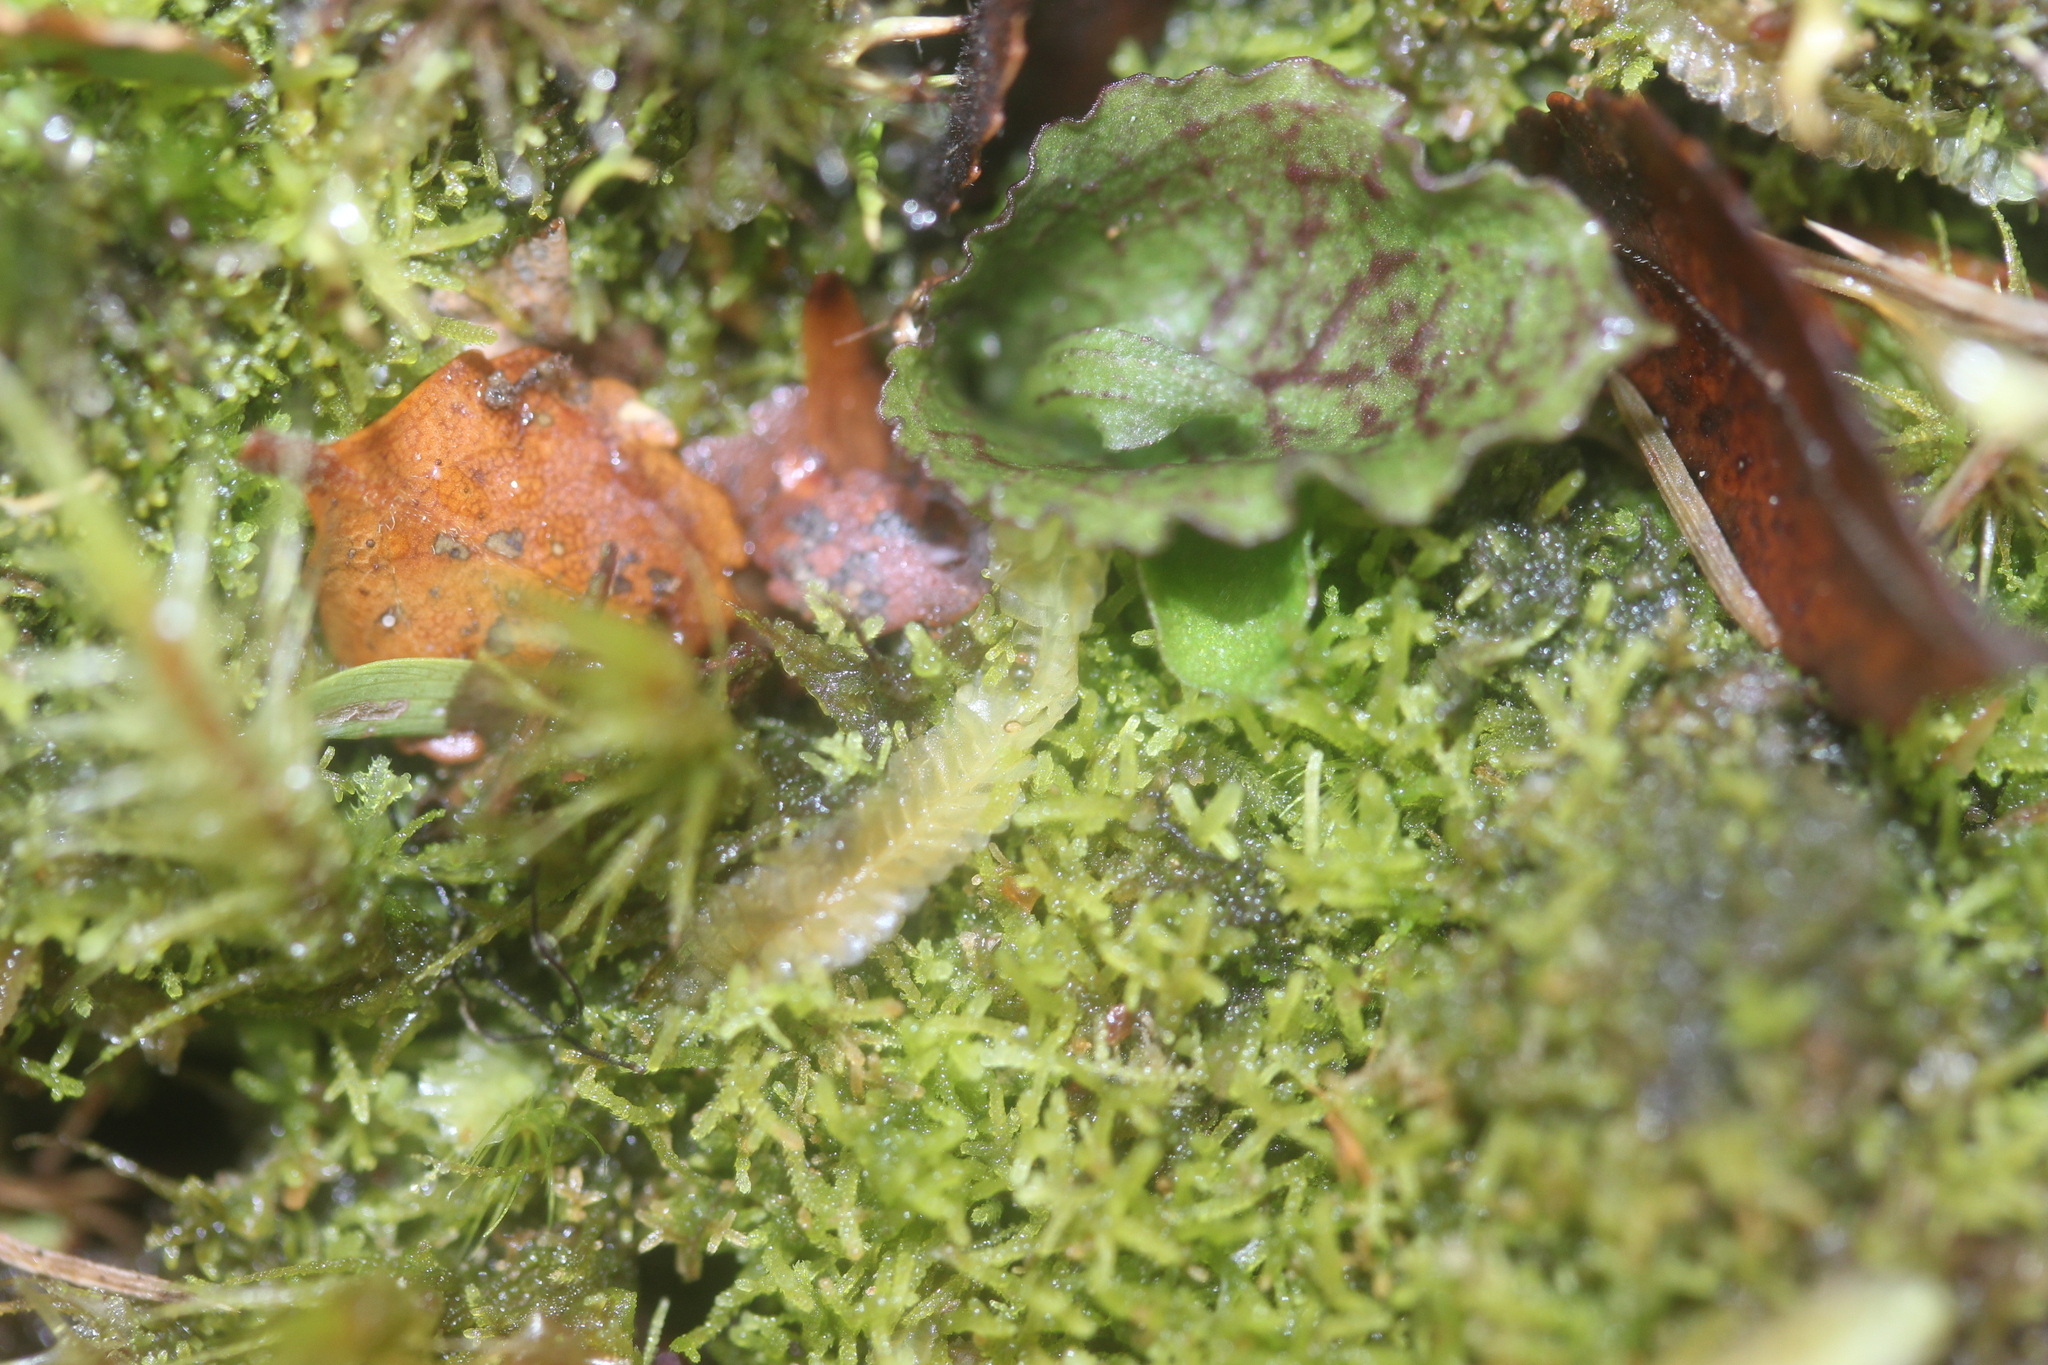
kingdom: Plantae
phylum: Tracheophyta
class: Liliopsida
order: Asparagales
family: Orchidaceae
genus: Corybas
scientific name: Corybas oblongus
